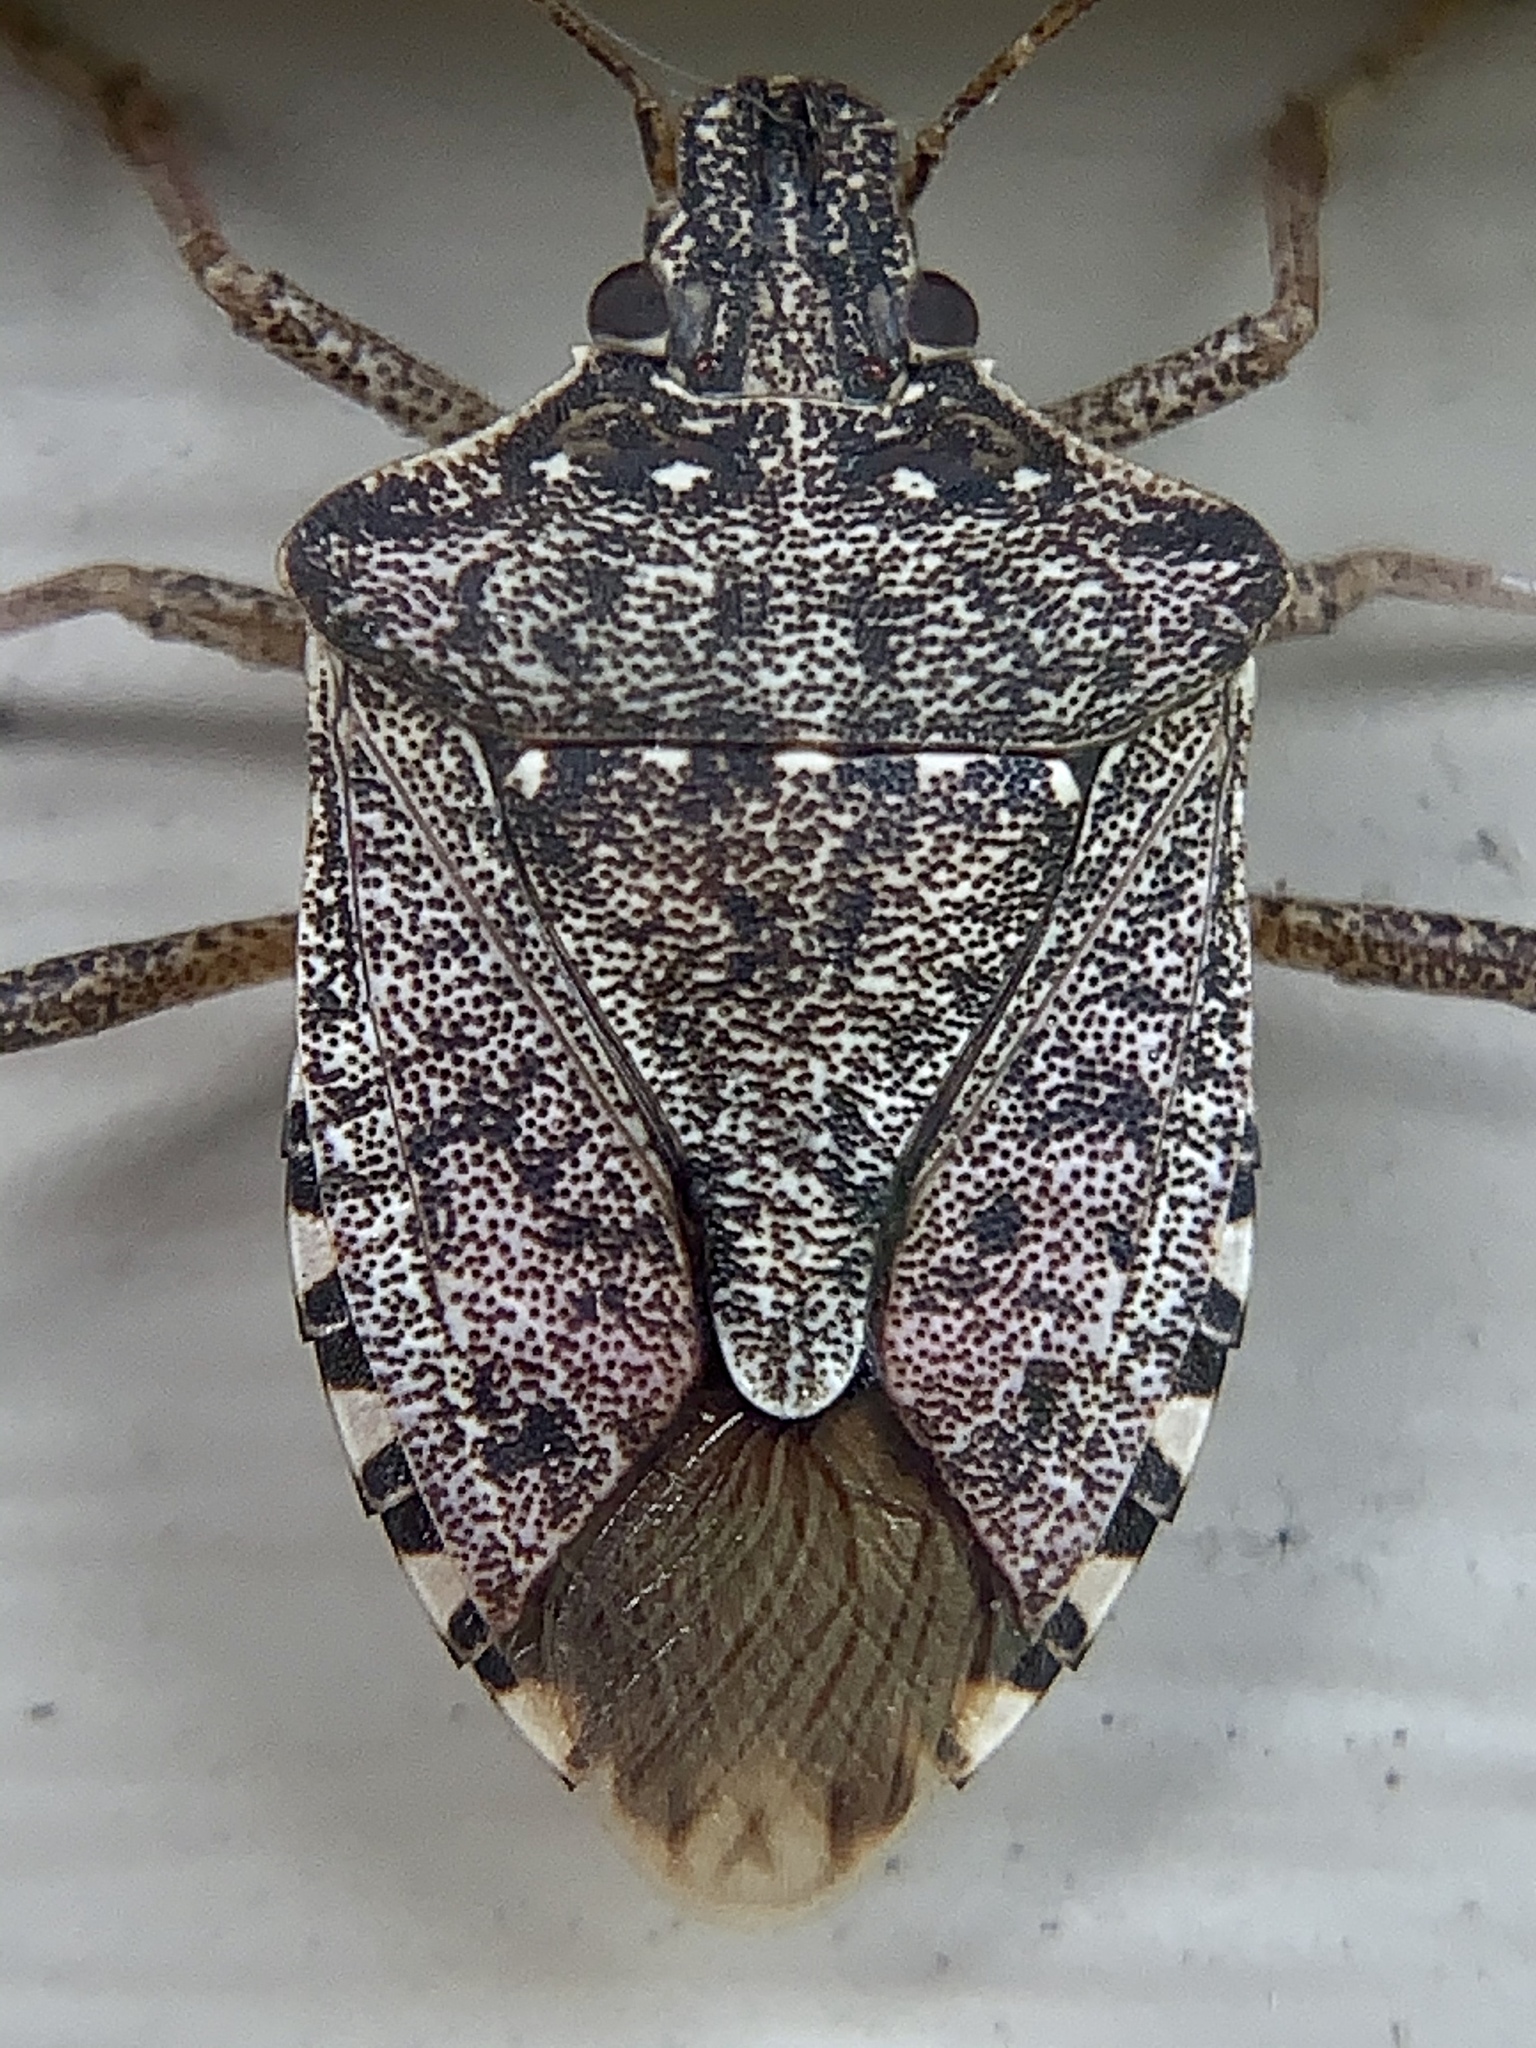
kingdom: Animalia
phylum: Arthropoda
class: Insecta
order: Hemiptera
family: Pentatomidae
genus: Halyomorpha
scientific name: Halyomorpha halys
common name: Brown marmorated stink bug
